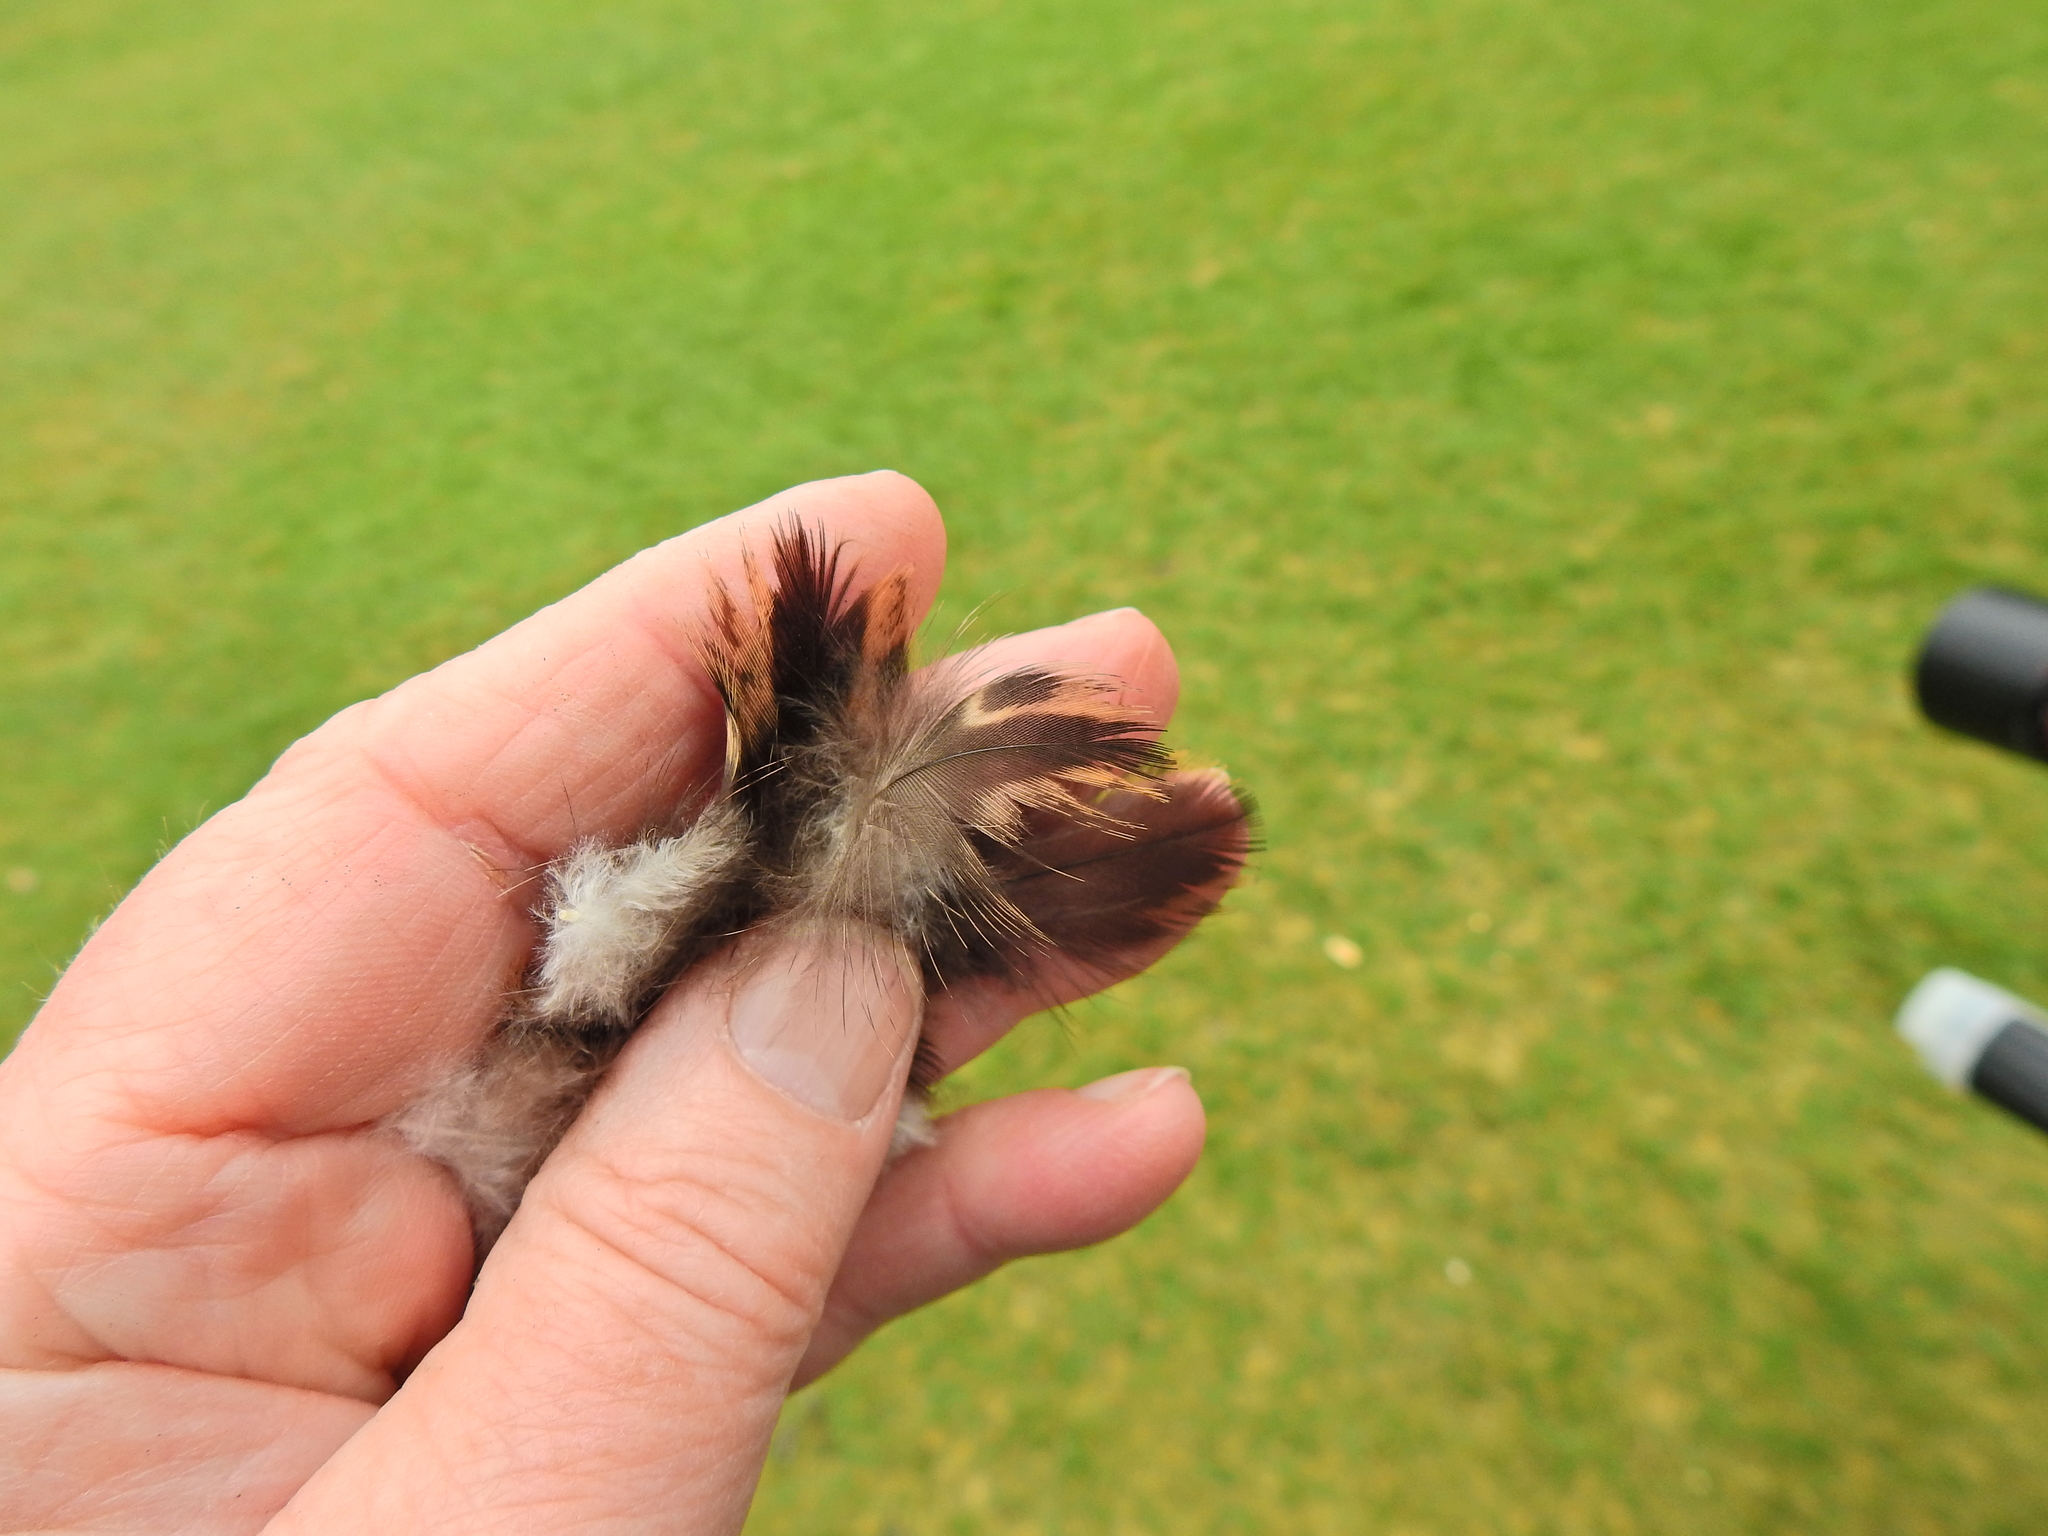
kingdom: Animalia
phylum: Chordata
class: Aves
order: Anseriformes
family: Anatidae
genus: Anas
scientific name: Anas platyrhynchos
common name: Mallard
